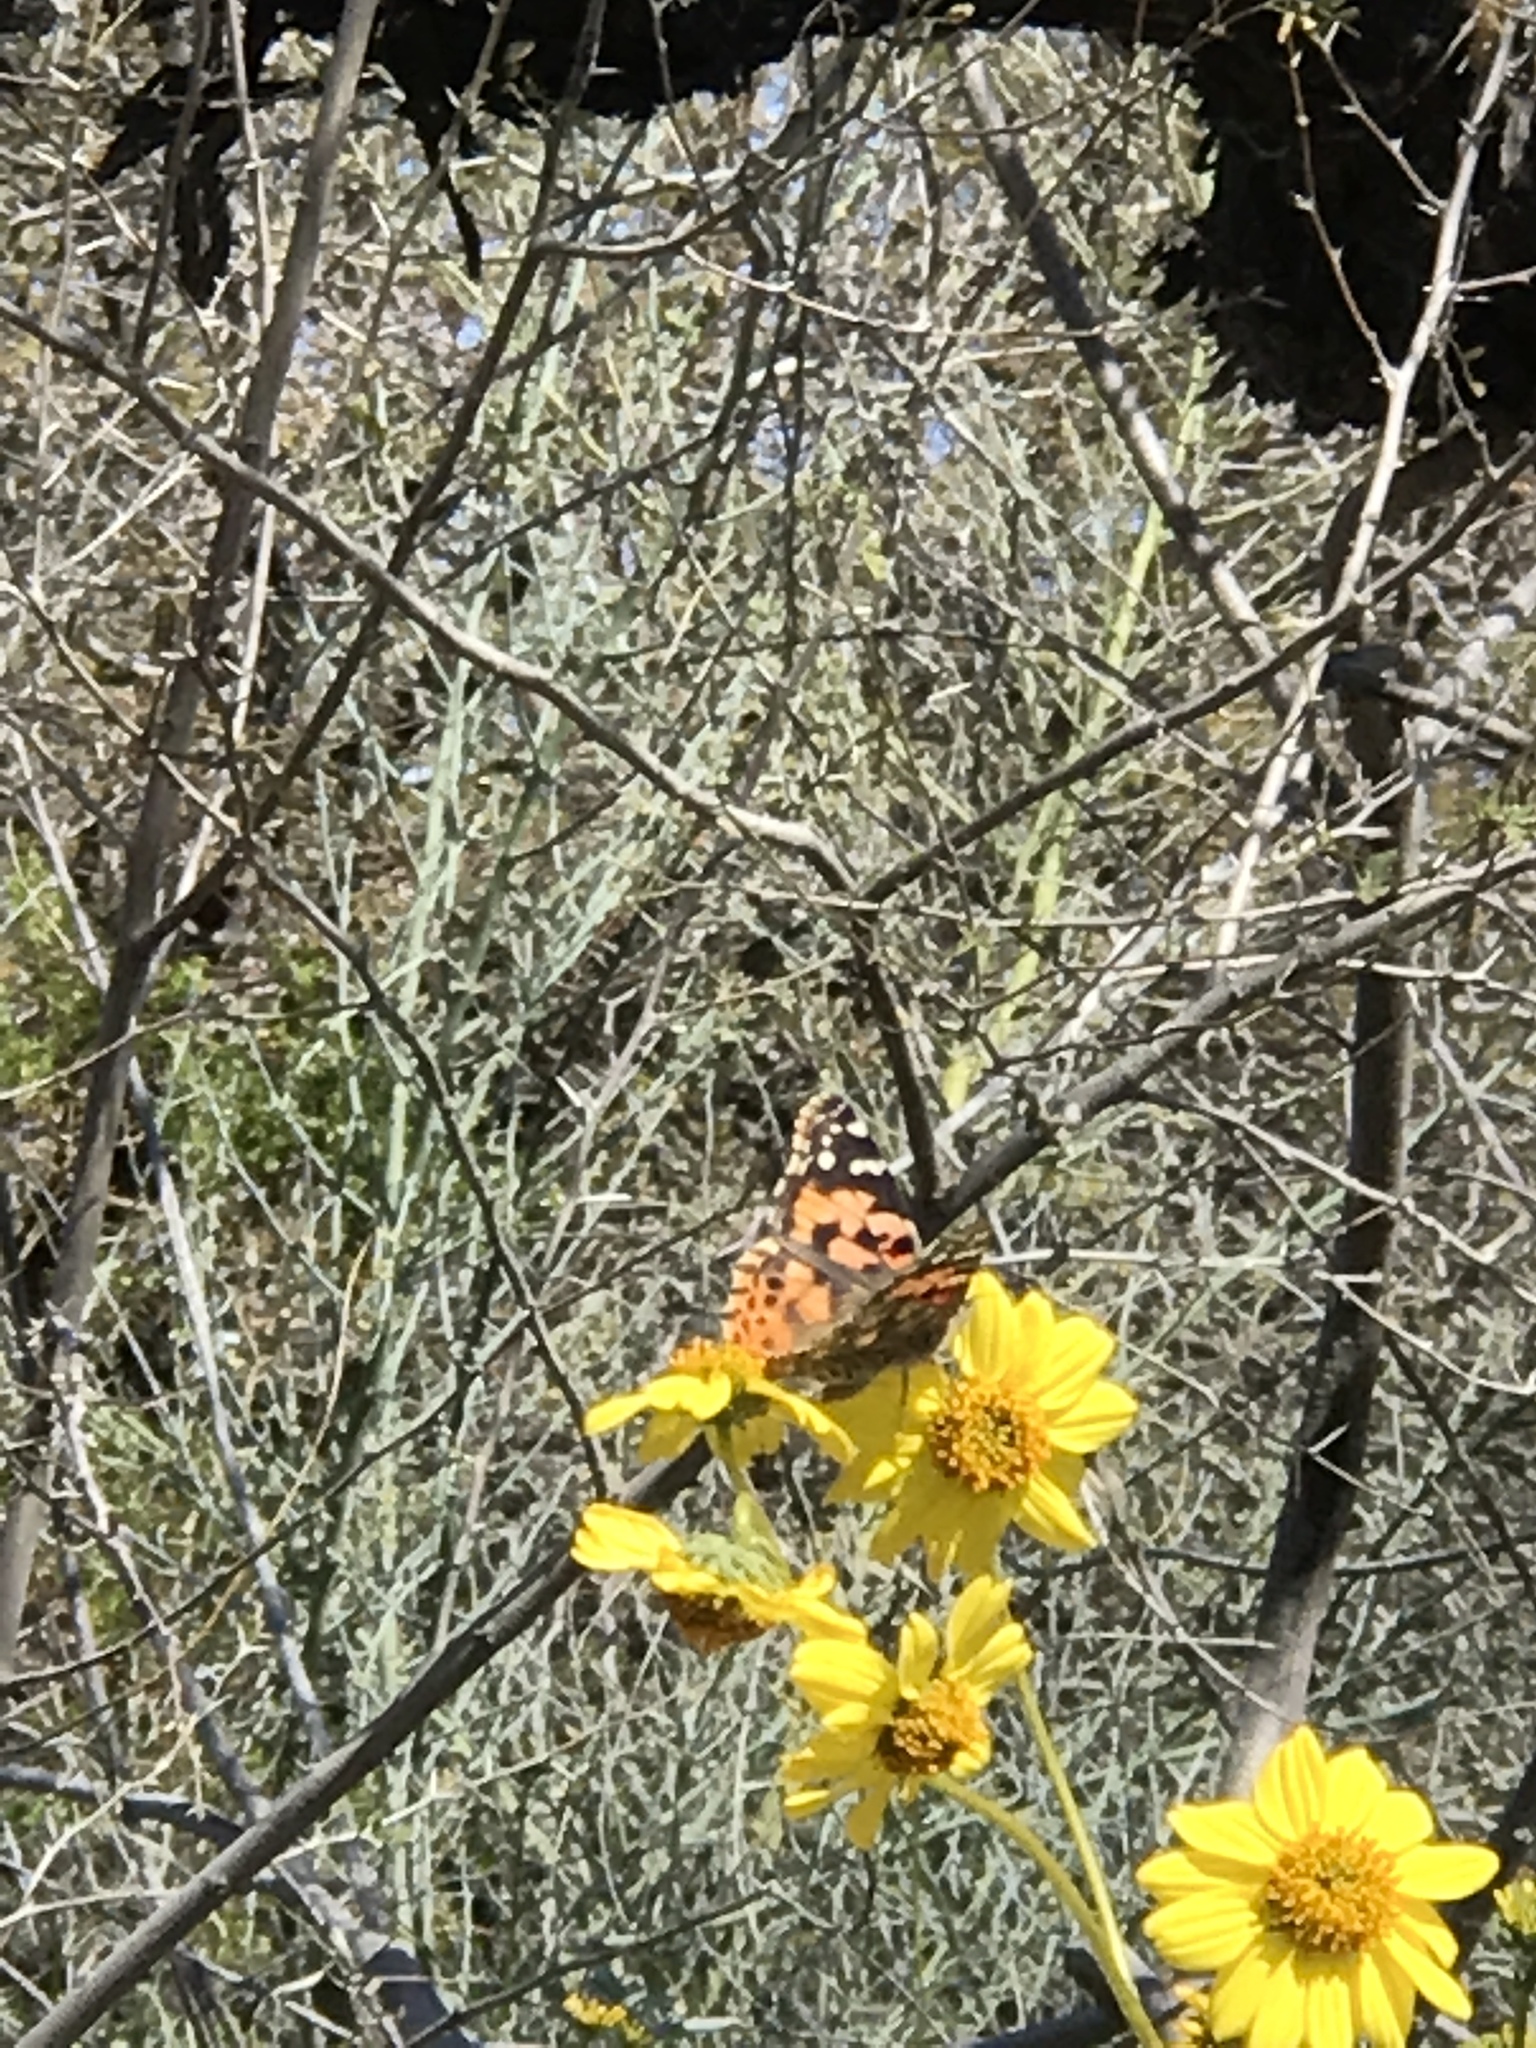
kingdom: Animalia
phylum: Arthropoda
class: Insecta
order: Lepidoptera
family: Nymphalidae
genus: Vanessa
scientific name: Vanessa cardui
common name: Painted lady
